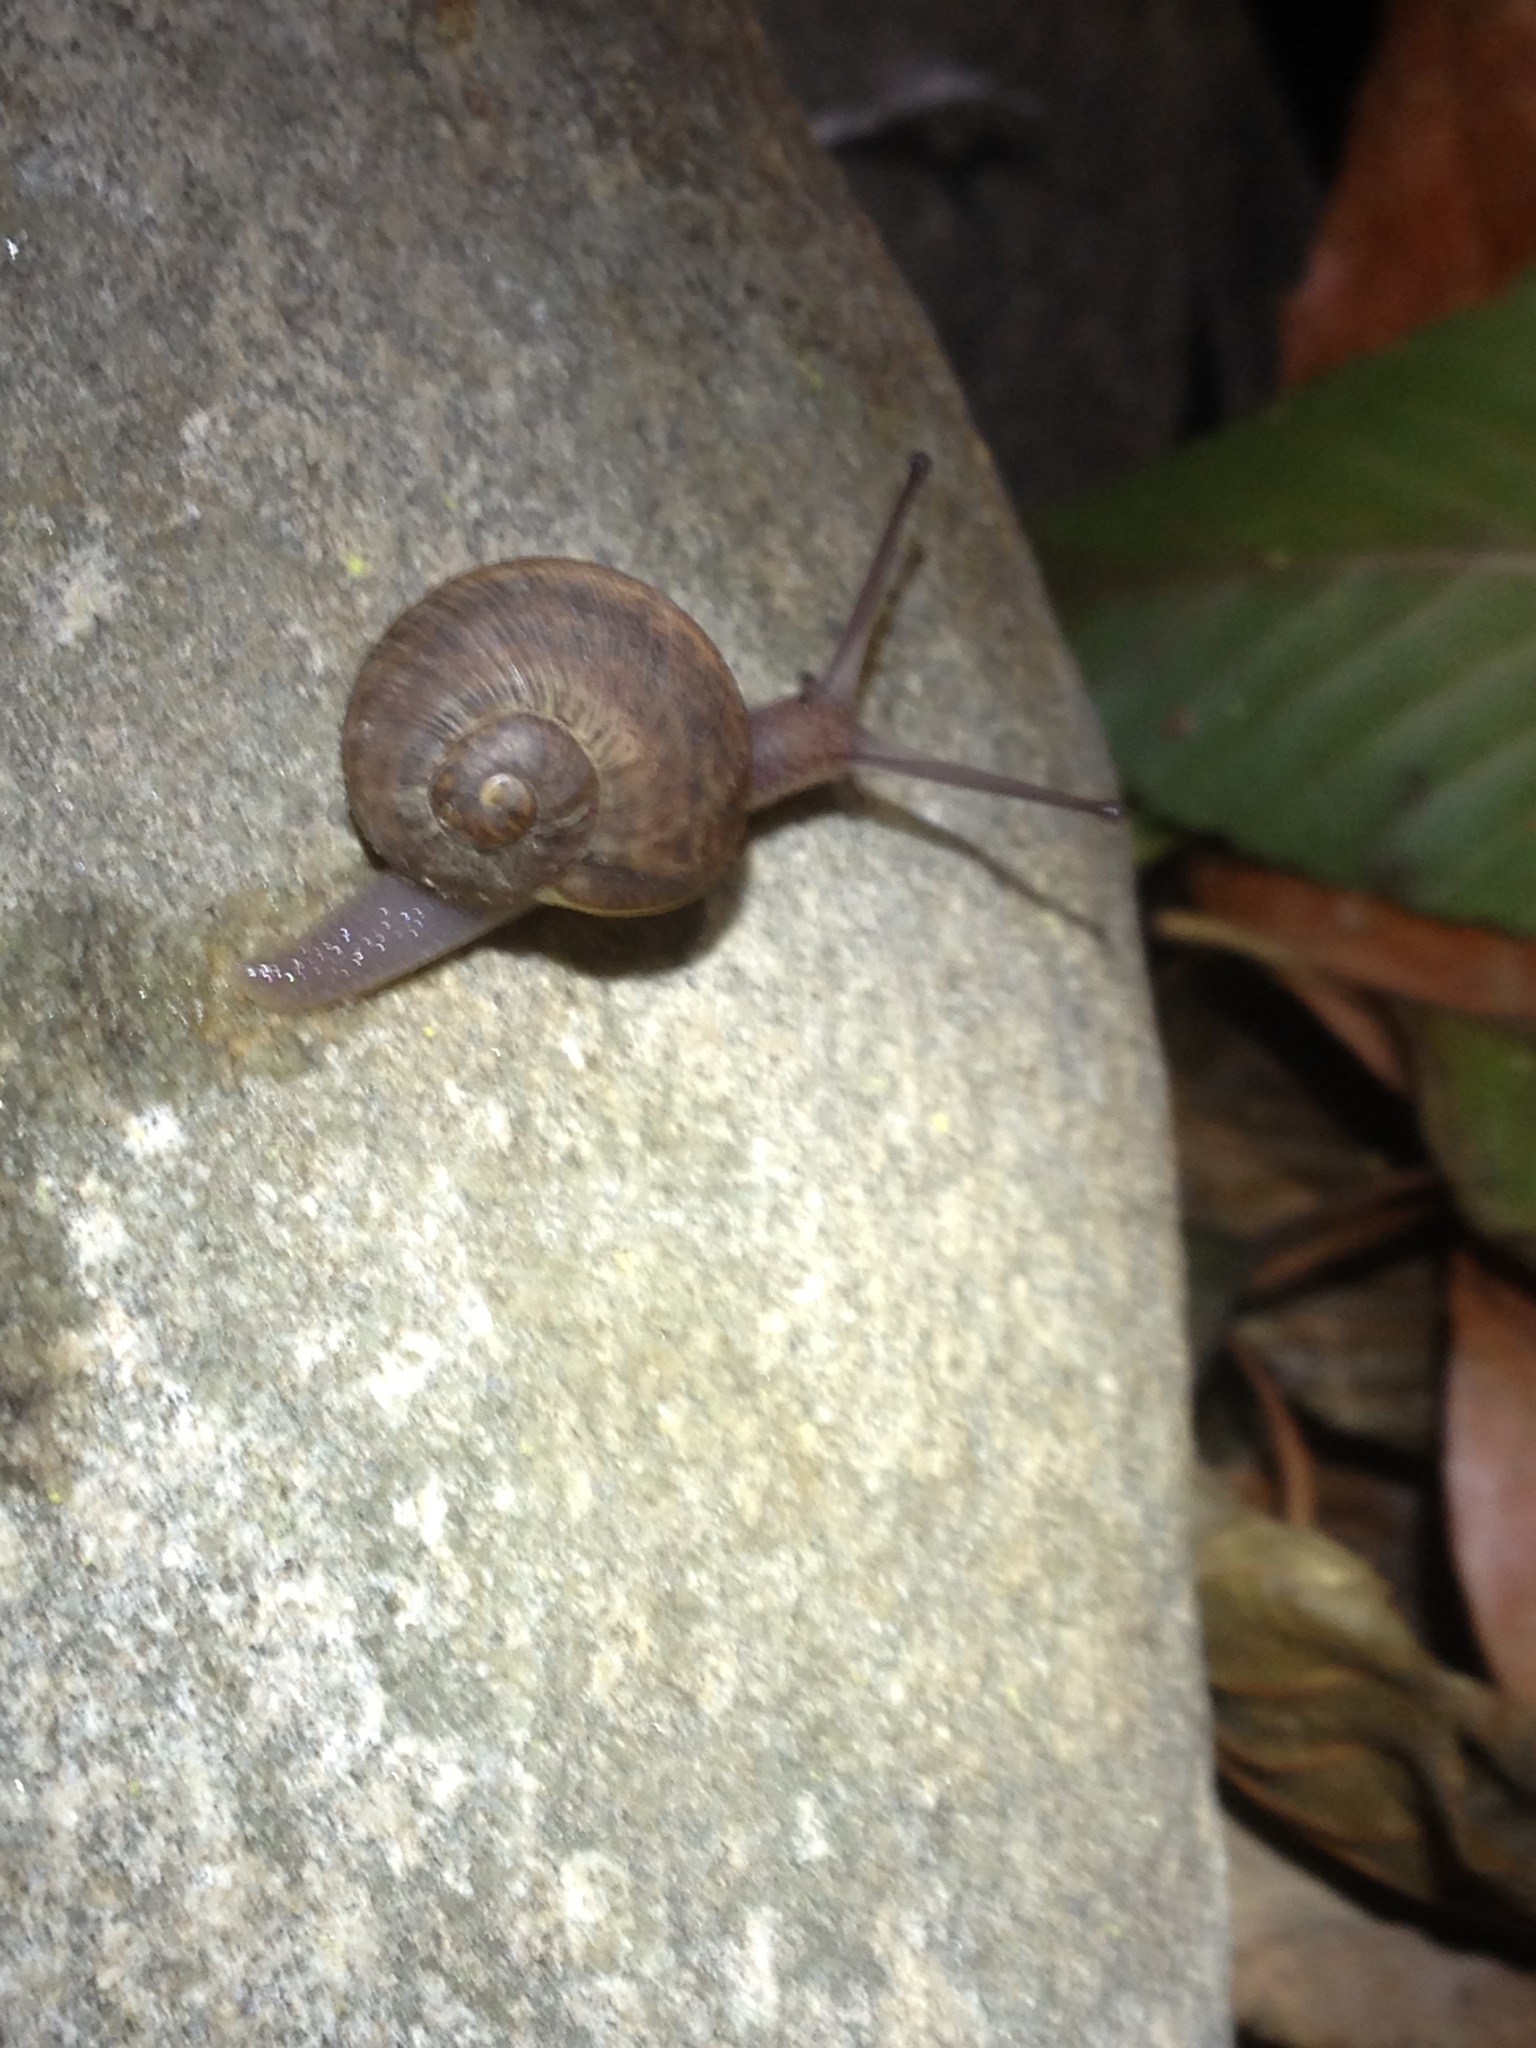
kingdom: Animalia
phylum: Mollusca
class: Gastropoda
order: Stylommatophora
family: Helicidae
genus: Cornu
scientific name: Cornu aspersum
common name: Brown garden snail
